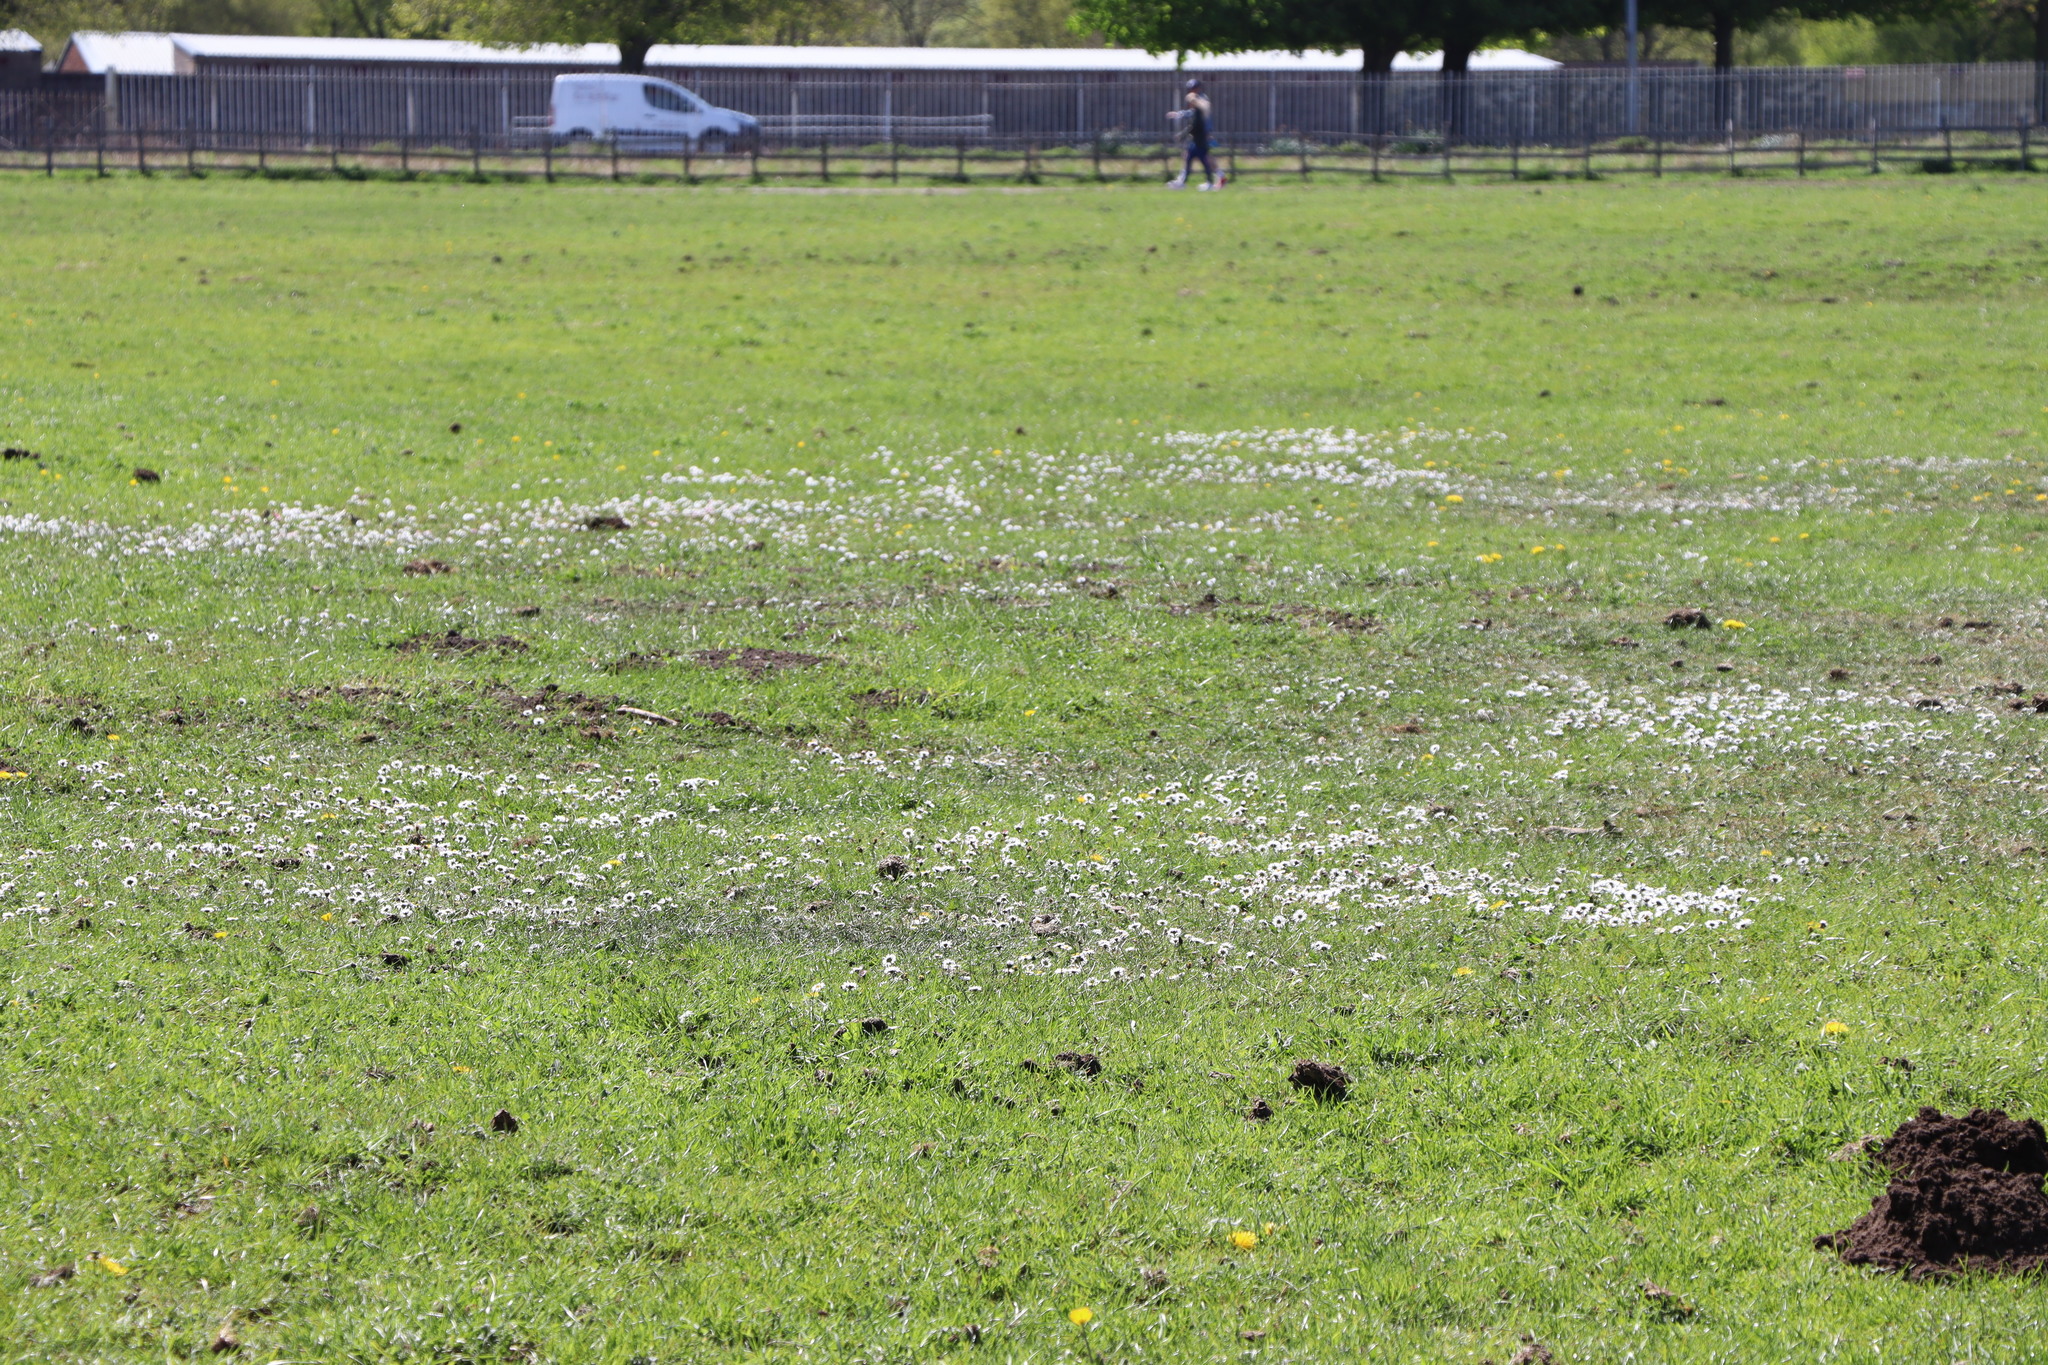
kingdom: Plantae
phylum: Tracheophyta
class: Magnoliopsida
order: Asterales
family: Asteraceae
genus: Bellis
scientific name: Bellis perennis
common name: Lawndaisy
